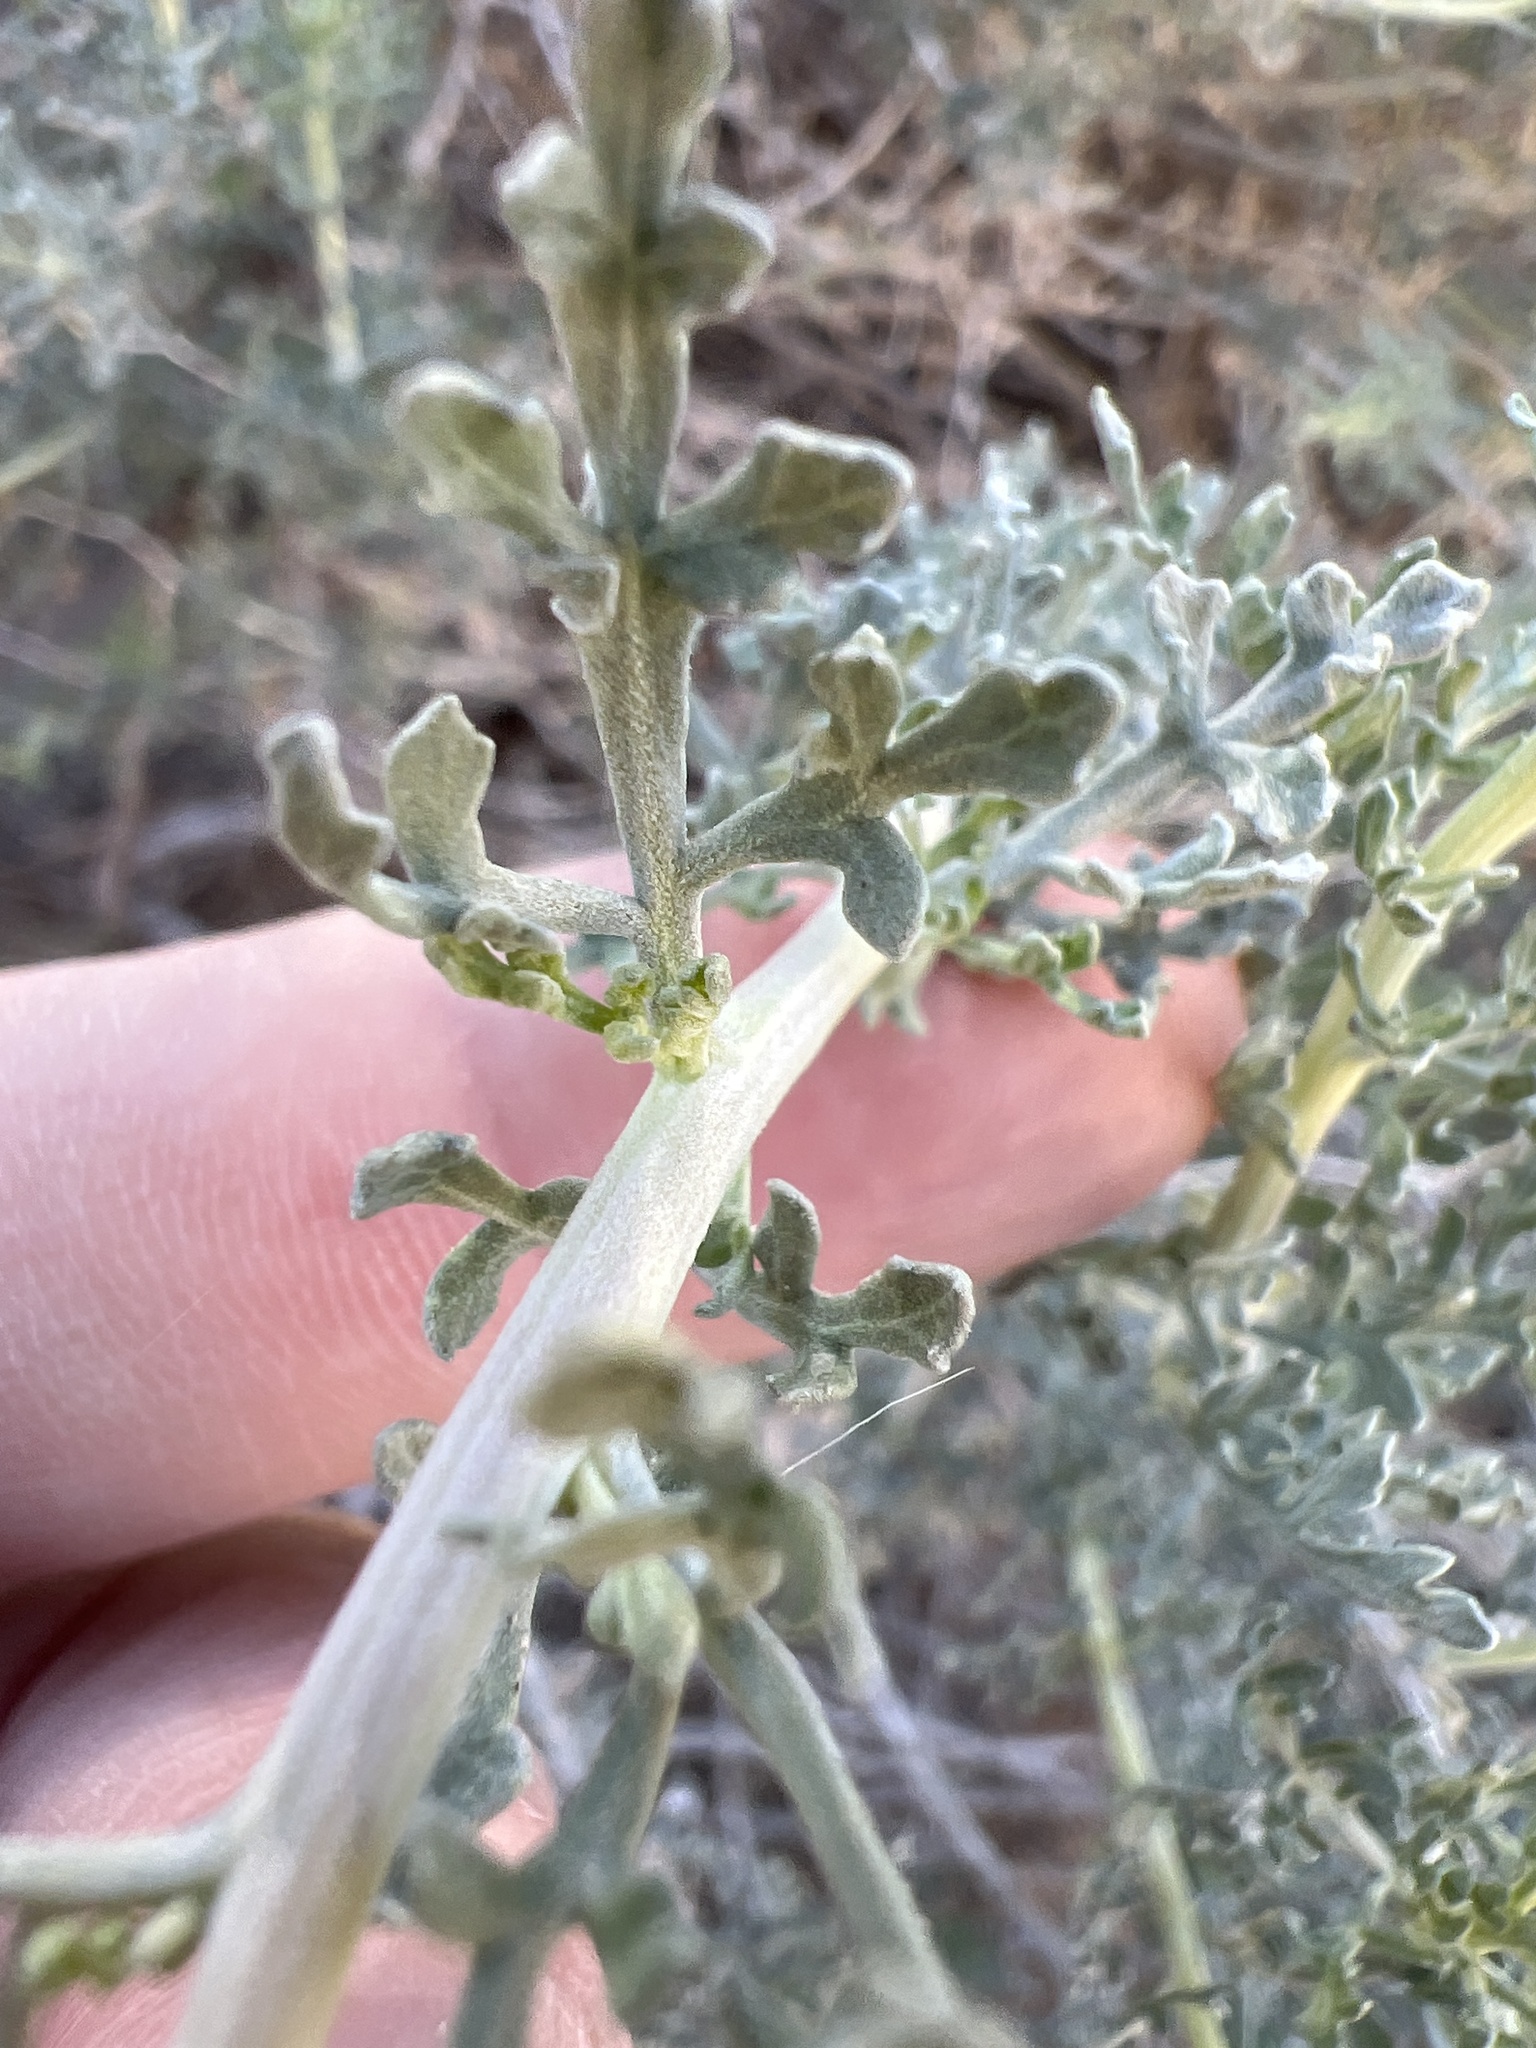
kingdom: Plantae
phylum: Tracheophyta
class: Magnoliopsida
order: Asterales
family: Asteraceae
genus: Ambrosia
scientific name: Ambrosia dumosa
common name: Bur-sage
